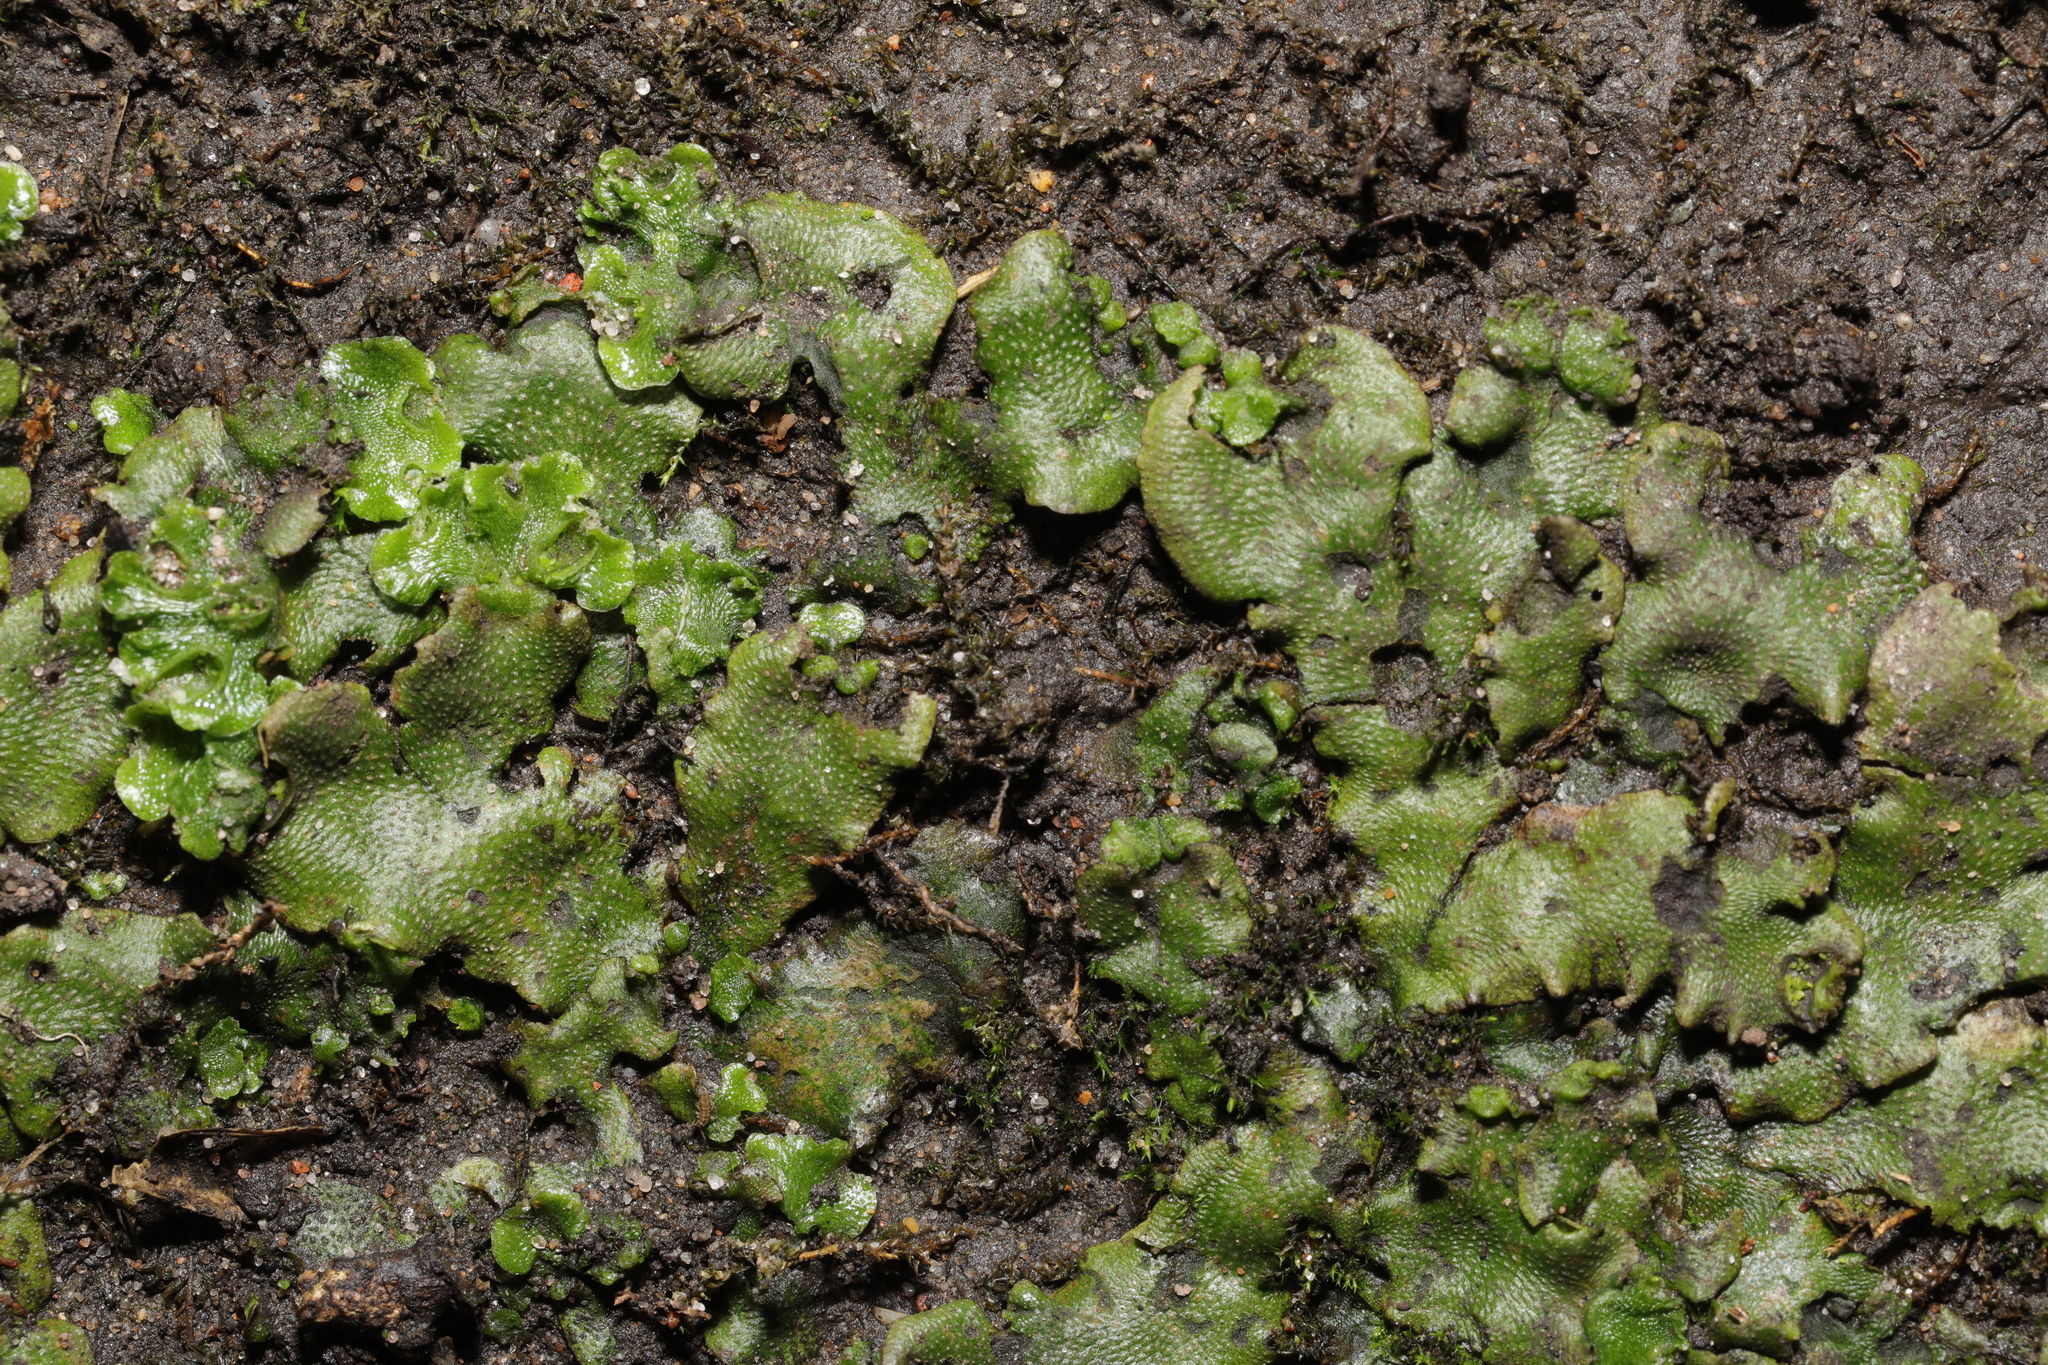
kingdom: Plantae
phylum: Marchantiophyta
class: Marchantiopsida
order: Marchantiales
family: Marchantiaceae
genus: Marchantia
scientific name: Marchantia polymorpha
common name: Common liverwort
